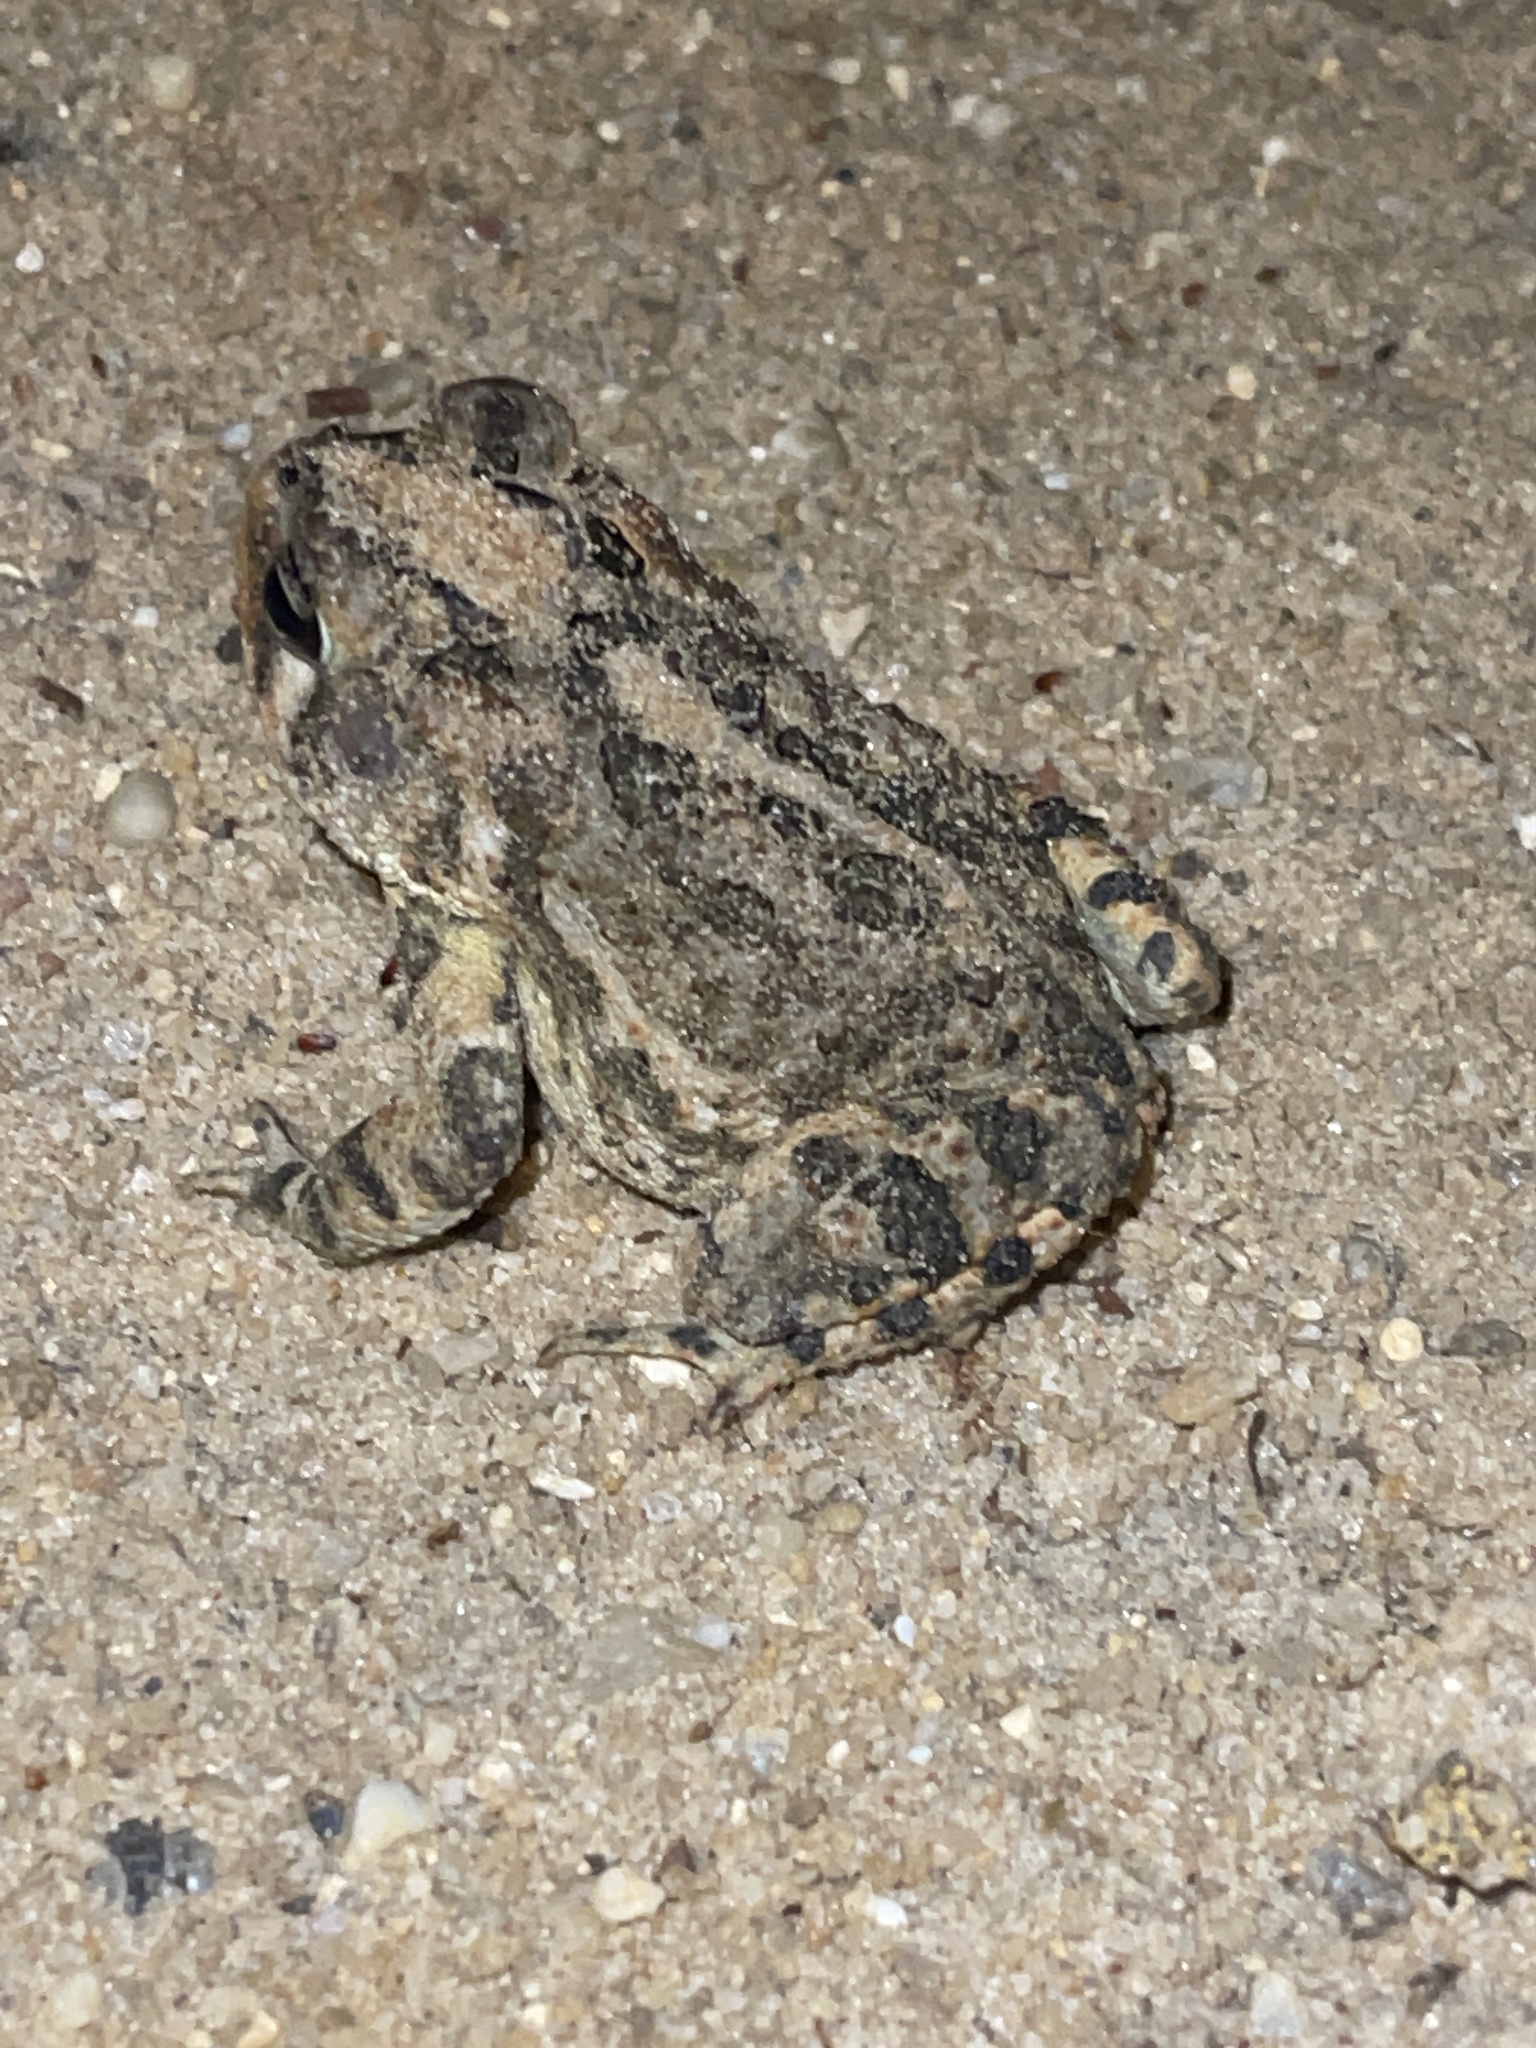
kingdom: Animalia
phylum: Chordata
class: Amphibia
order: Anura
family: Bufonidae
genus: Anaxyrus
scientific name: Anaxyrus terrestris
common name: Southern toad
